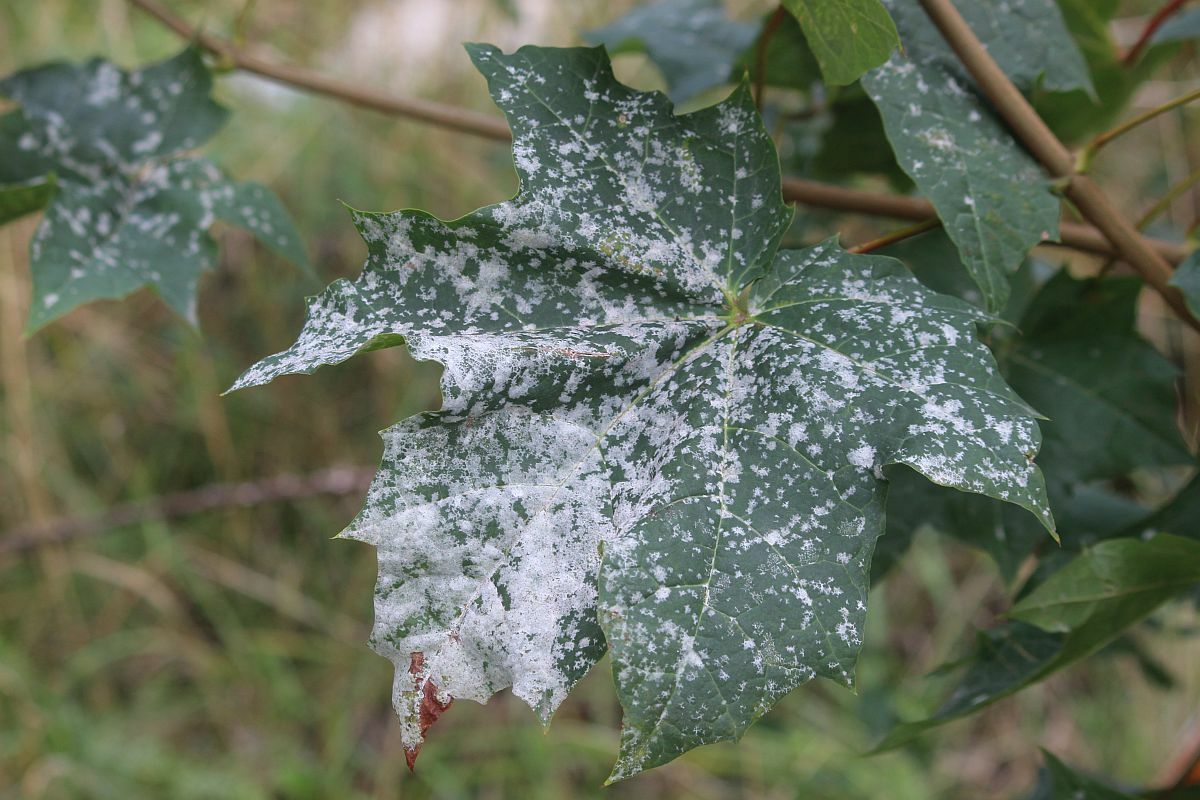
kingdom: Fungi
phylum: Ascomycota
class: Leotiomycetes
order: Helotiales
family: Erysiphaceae
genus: Sawadaea
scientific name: Sawadaea tulasnei
